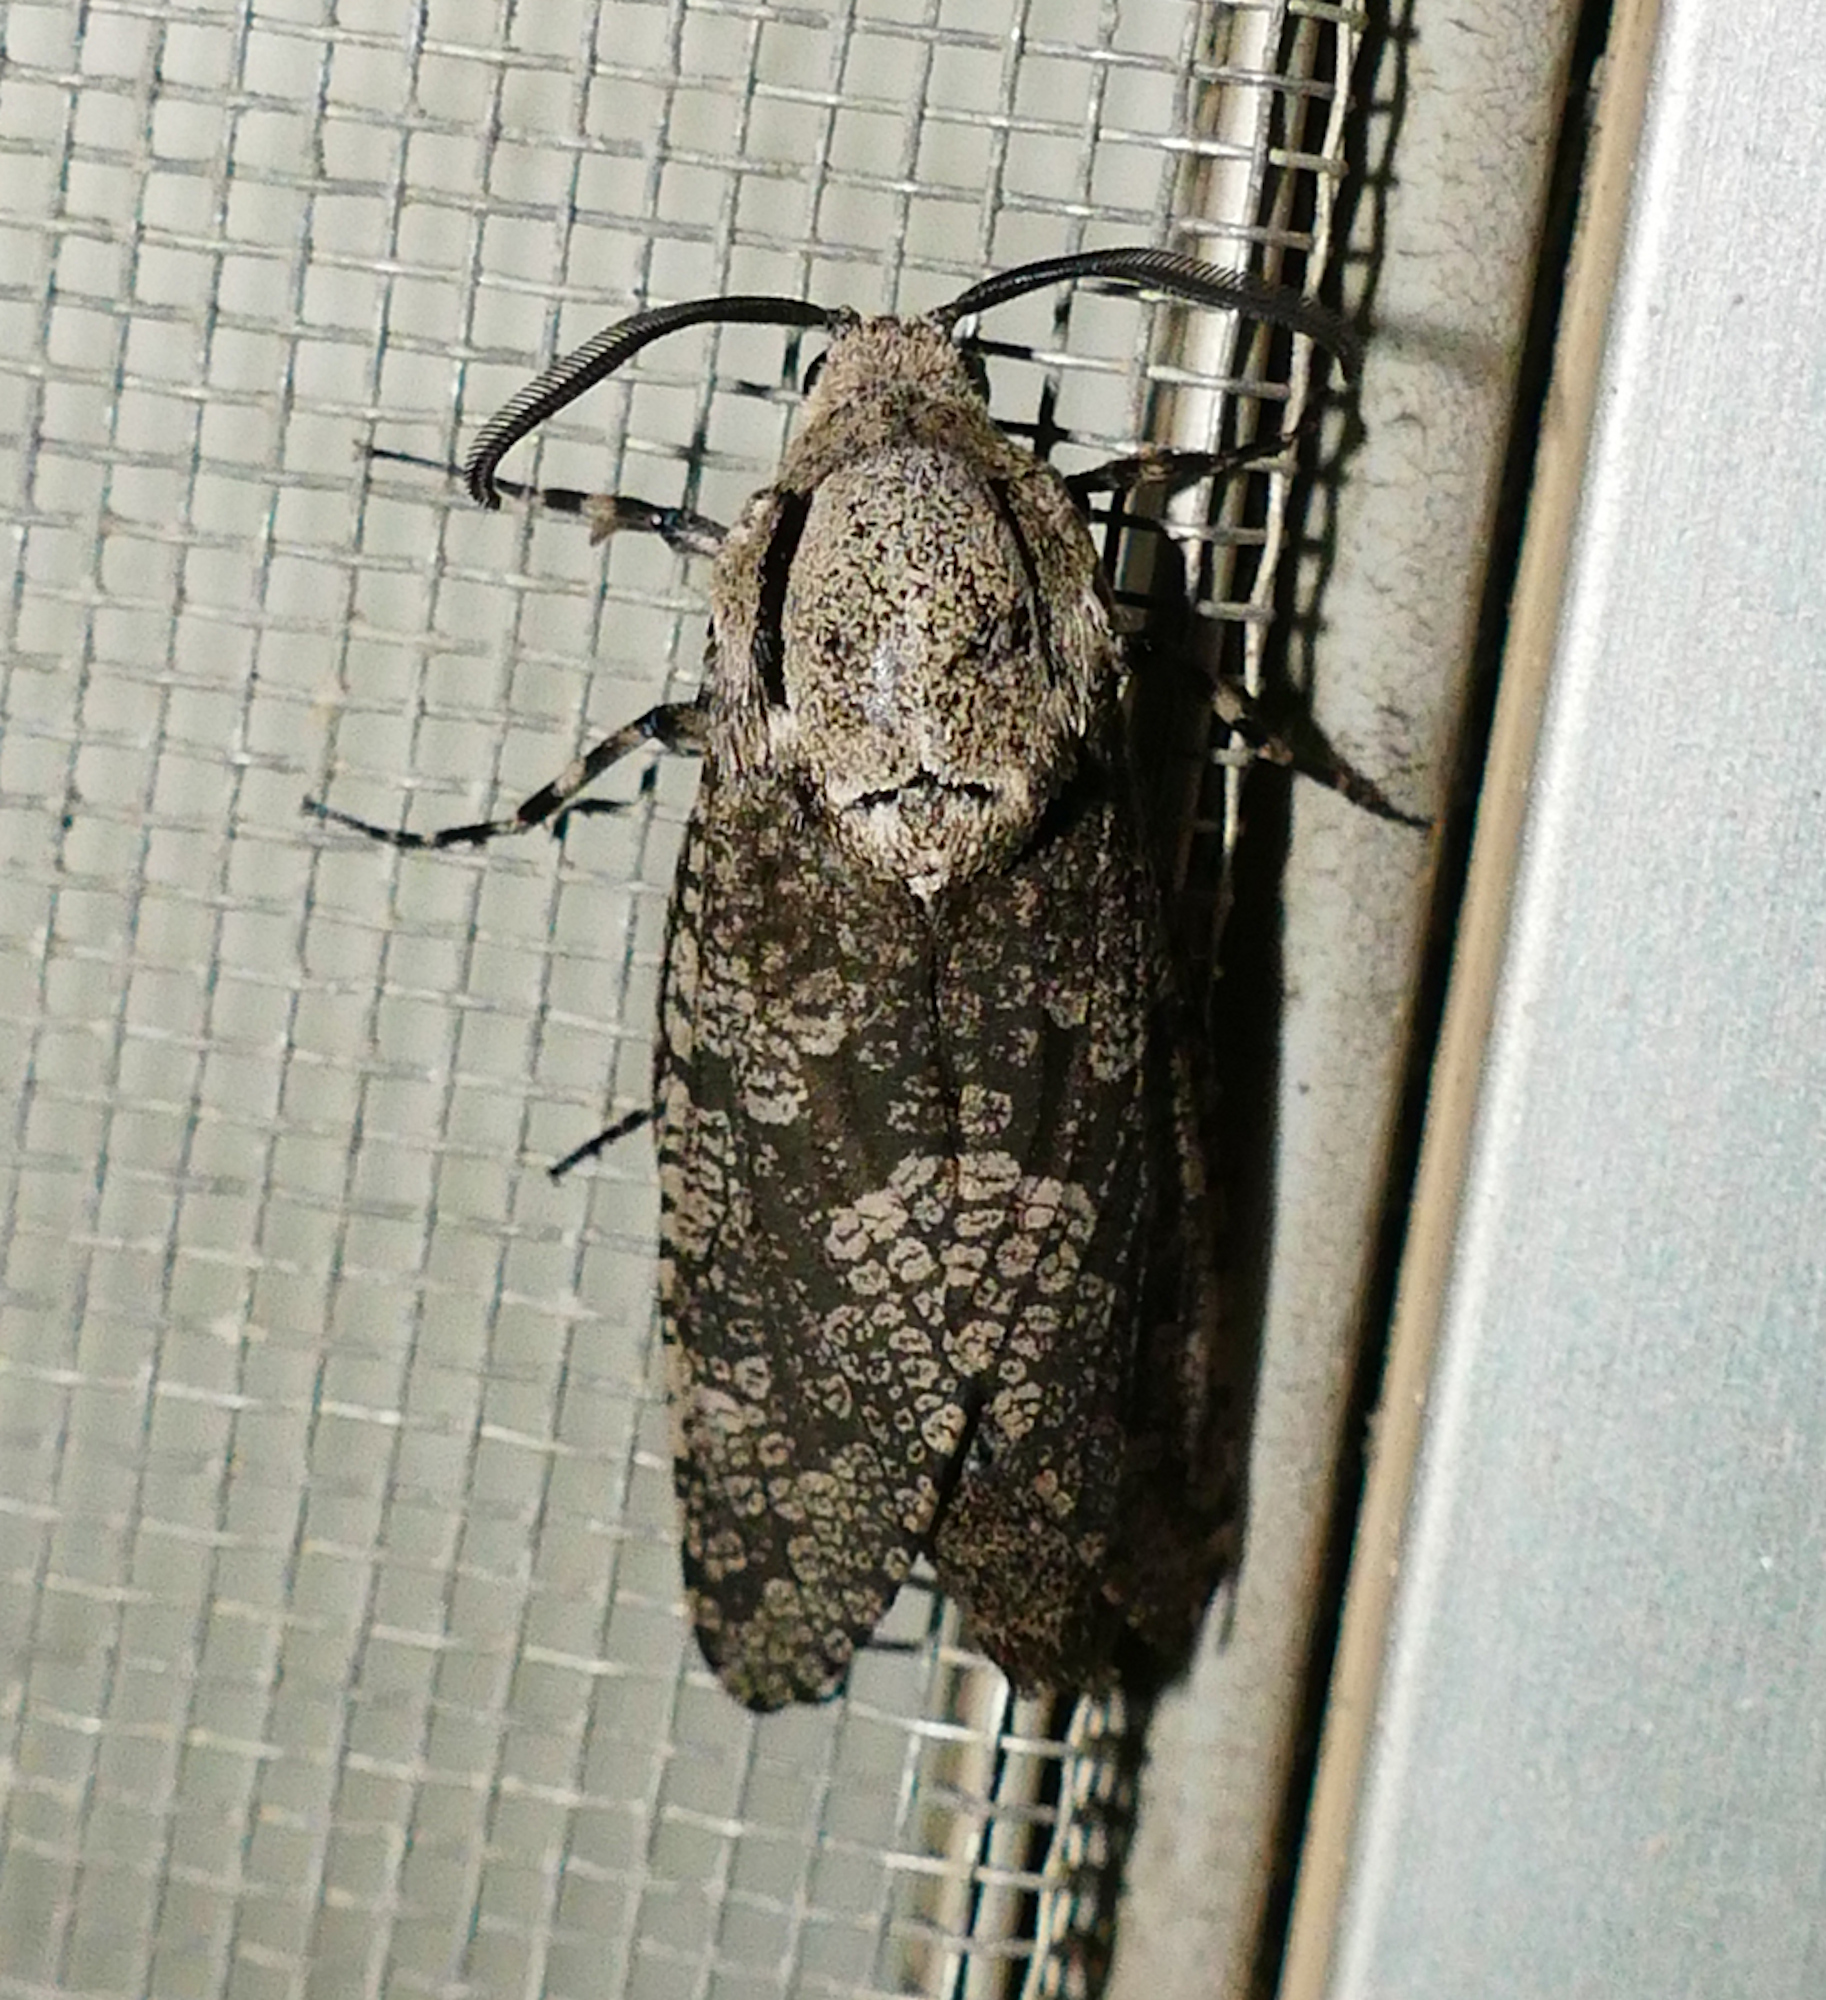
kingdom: Animalia
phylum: Arthropoda
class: Insecta
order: Lepidoptera
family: Cossidae
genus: Prionoxystus
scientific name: Prionoxystus robiniae
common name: Carpenterworm
